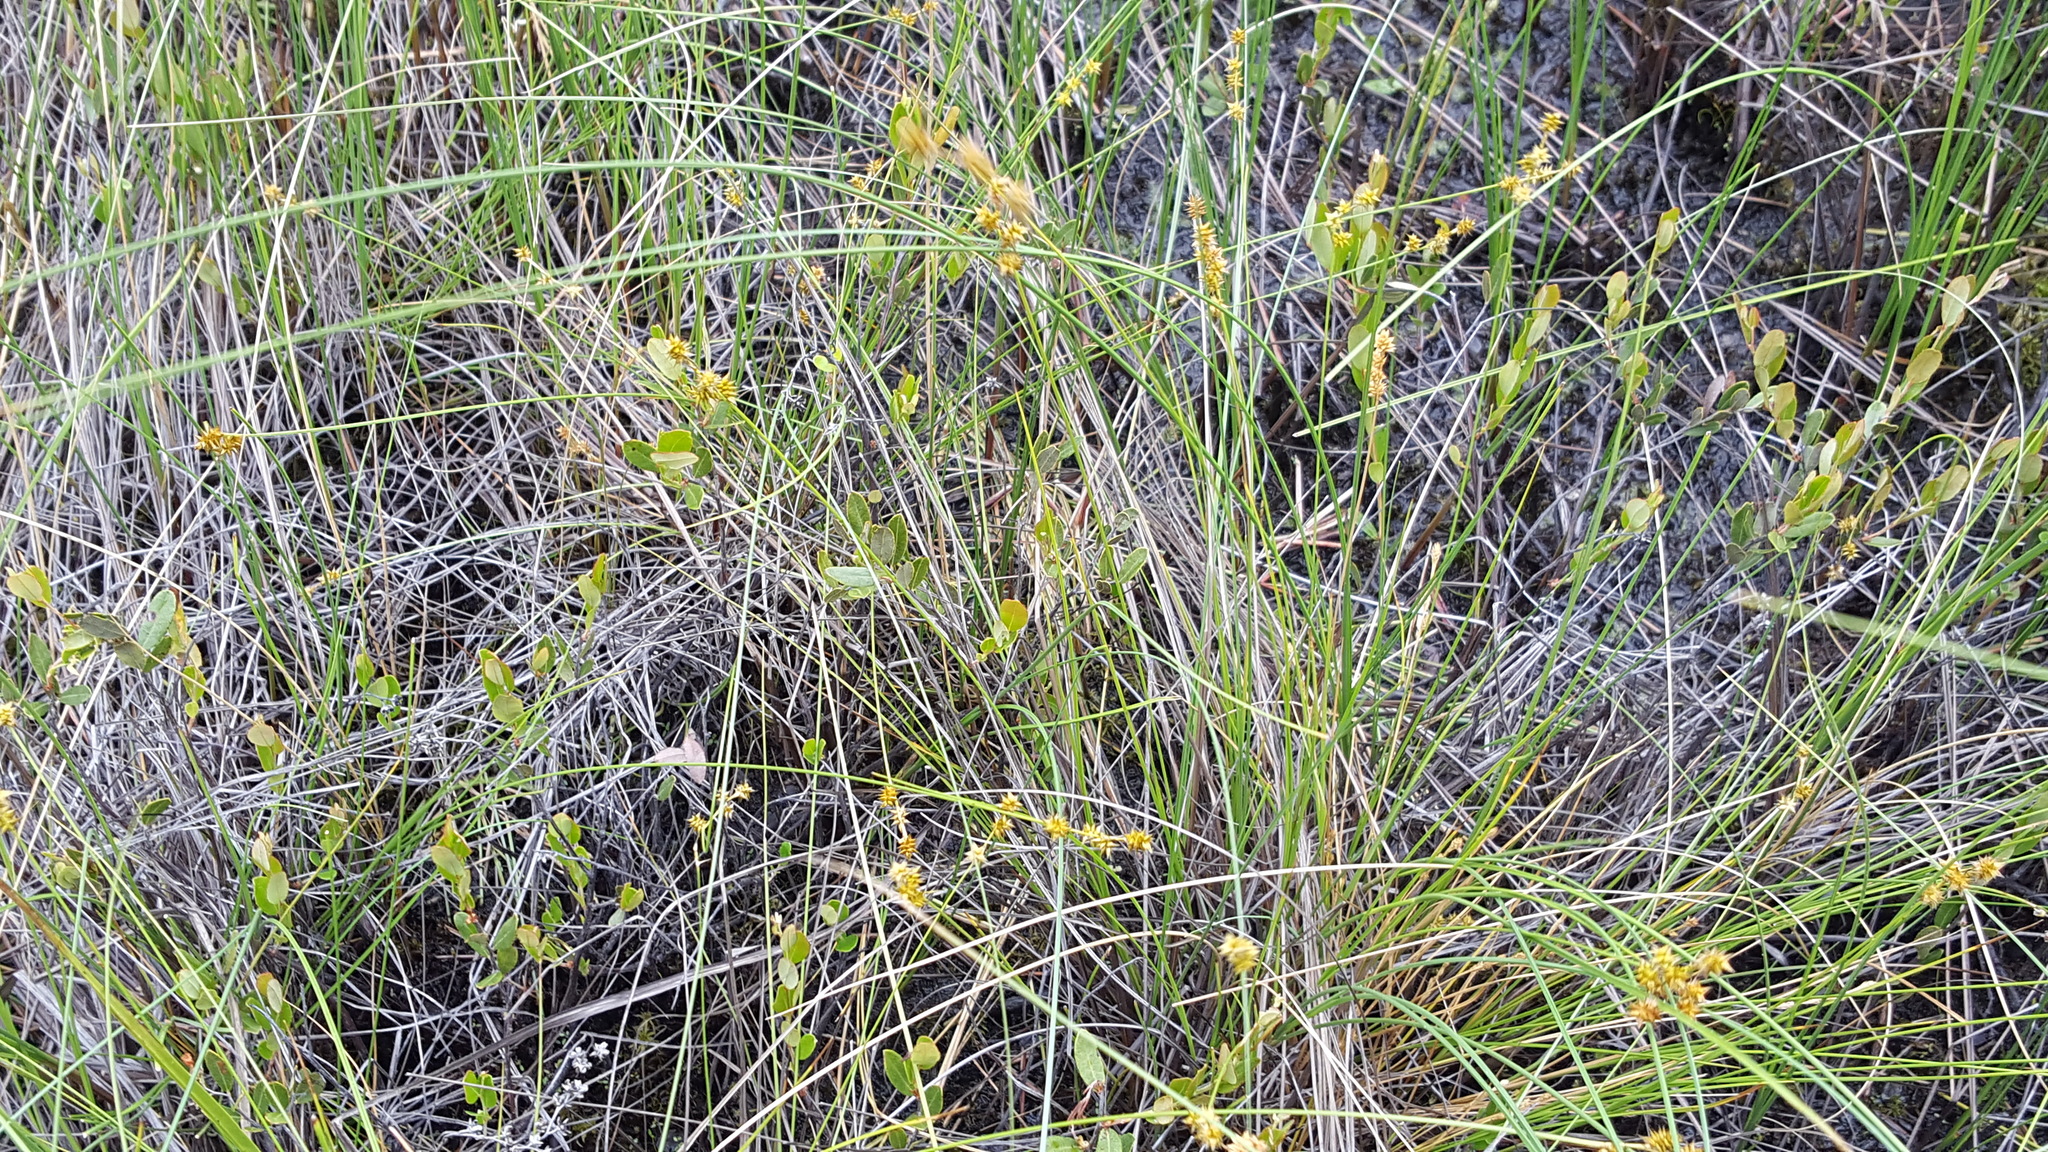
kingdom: Plantae
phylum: Tracheophyta
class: Liliopsida
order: Poales
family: Cyperaceae
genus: Carex
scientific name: Carex echinata
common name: Star sedge
